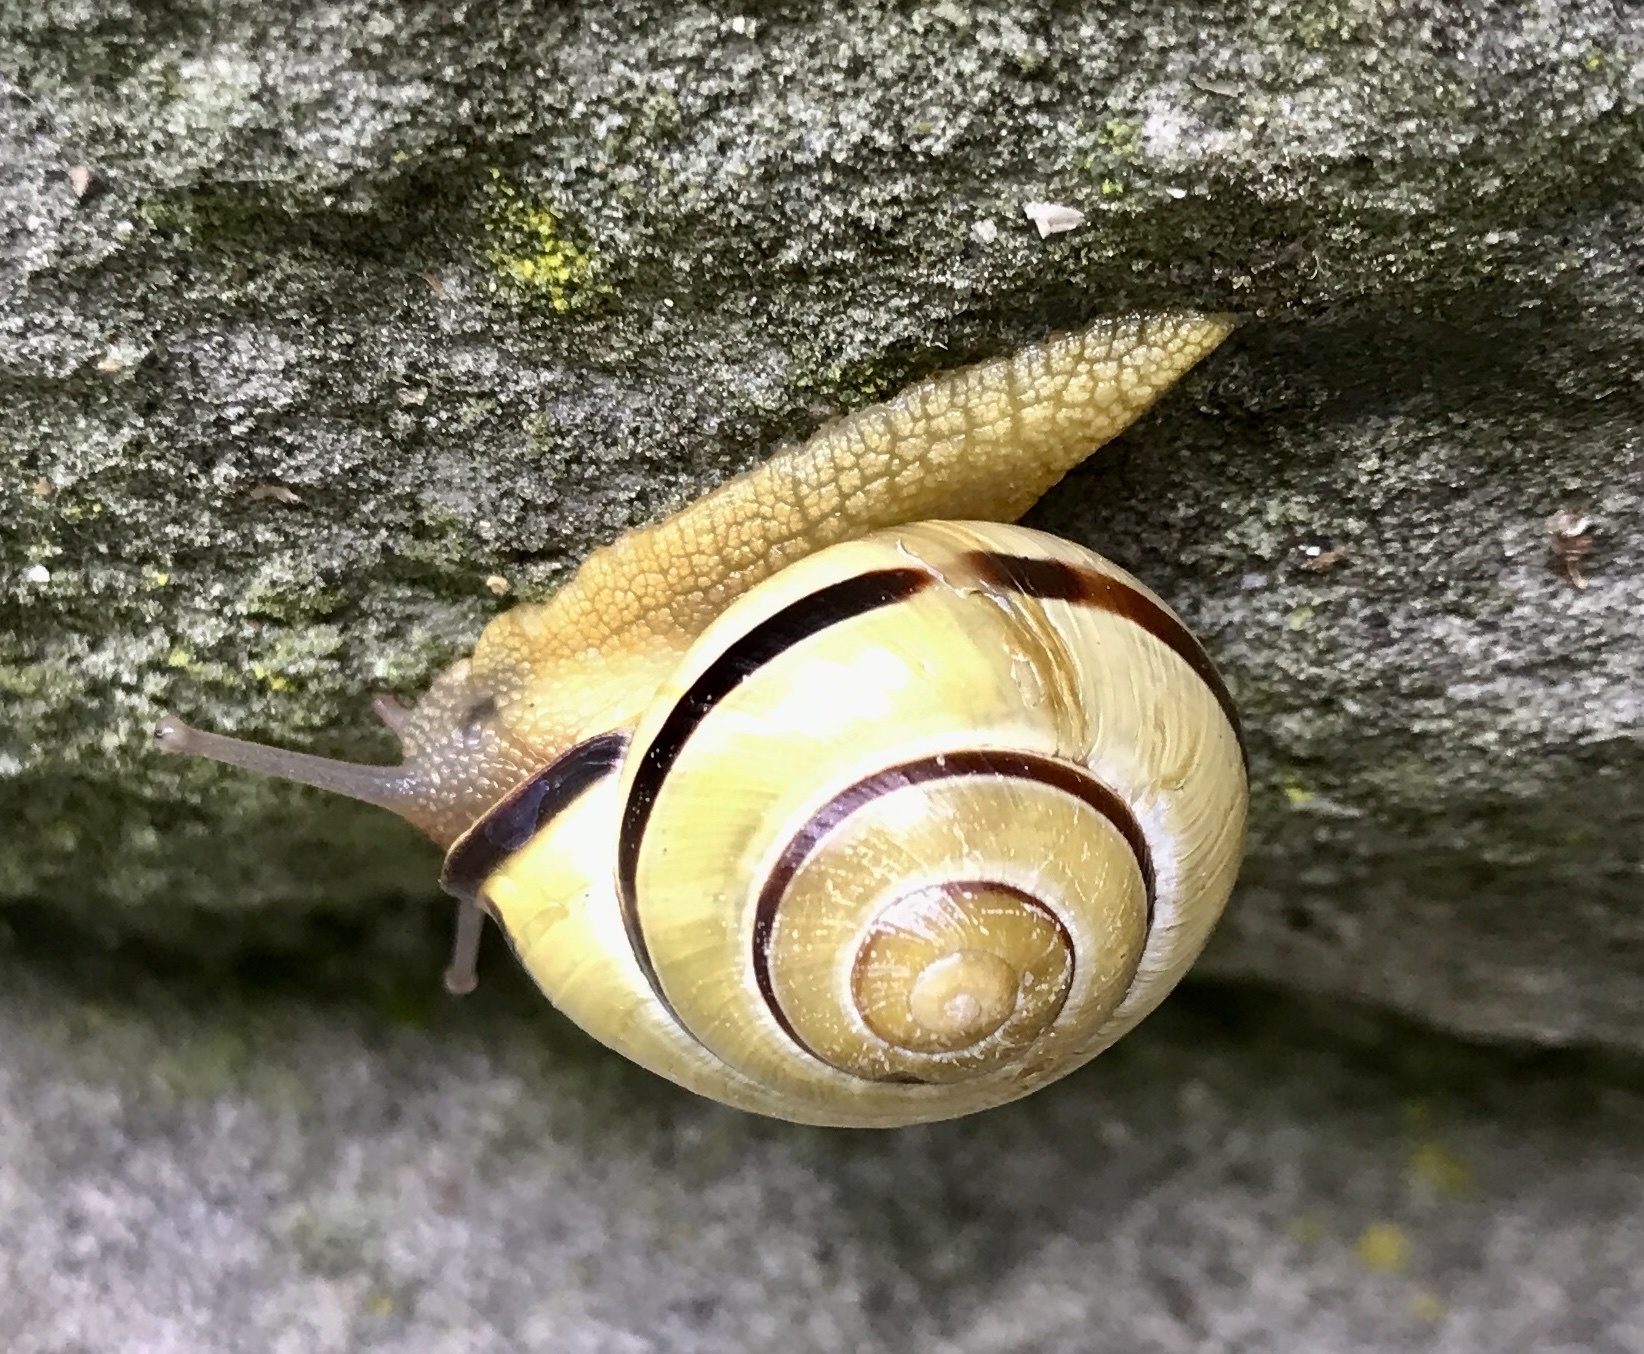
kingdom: Animalia
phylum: Mollusca
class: Gastropoda
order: Stylommatophora
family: Helicidae
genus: Cepaea
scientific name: Cepaea nemoralis
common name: Grovesnail
